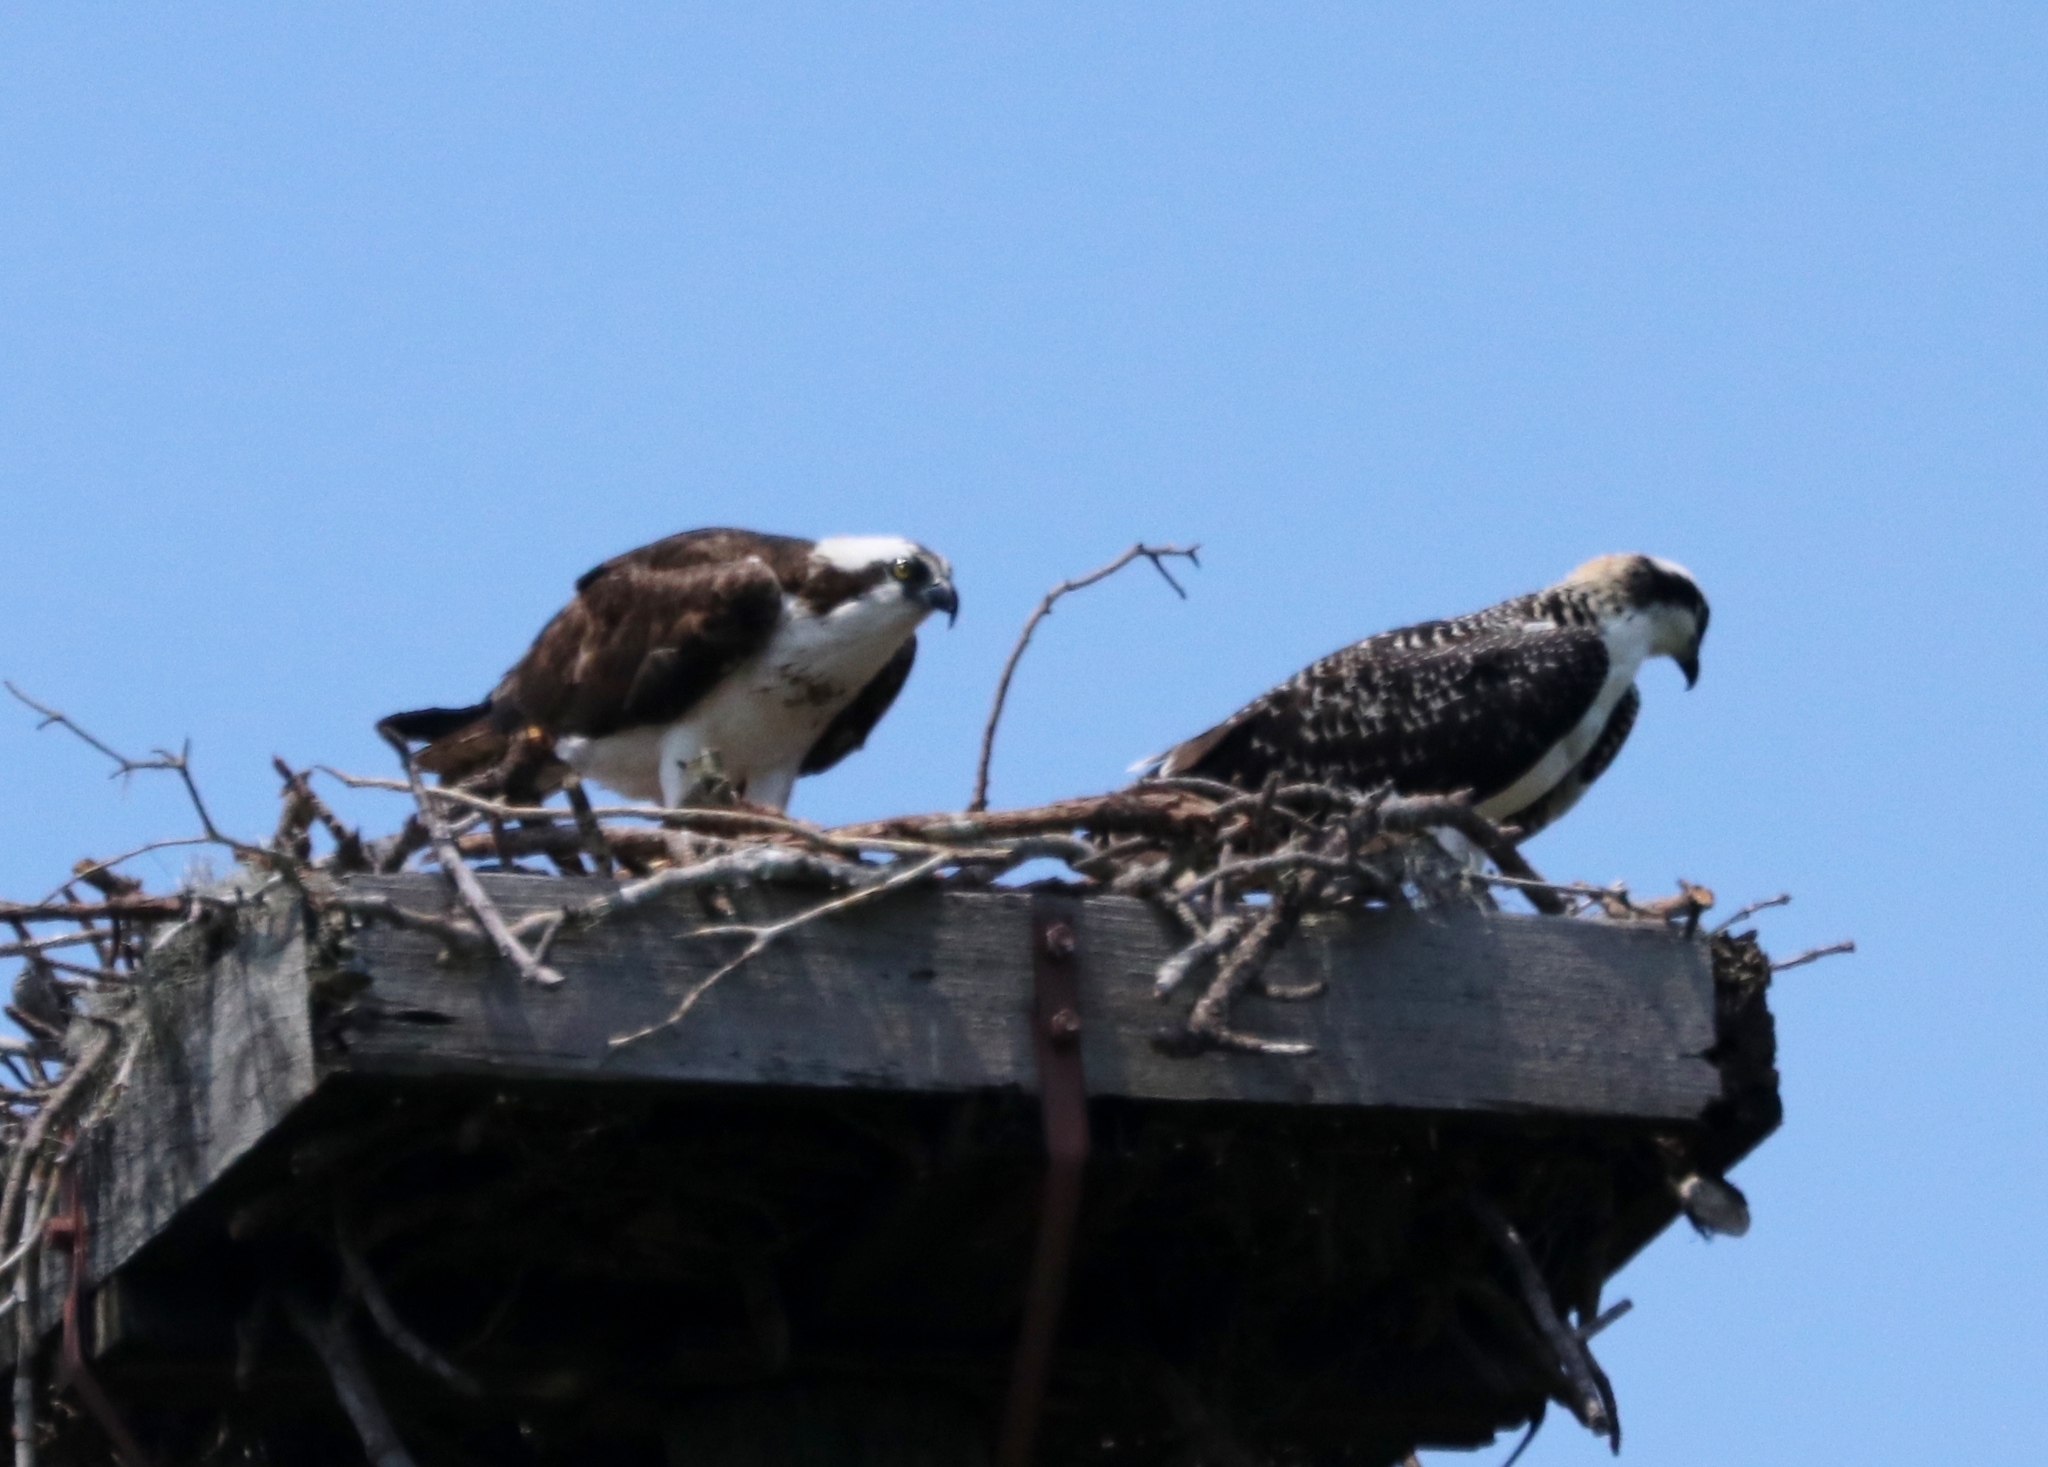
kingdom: Animalia
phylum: Chordata
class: Aves
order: Accipitriformes
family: Pandionidae
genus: Pandion
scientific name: Pandion haliaetus
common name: Osprey
